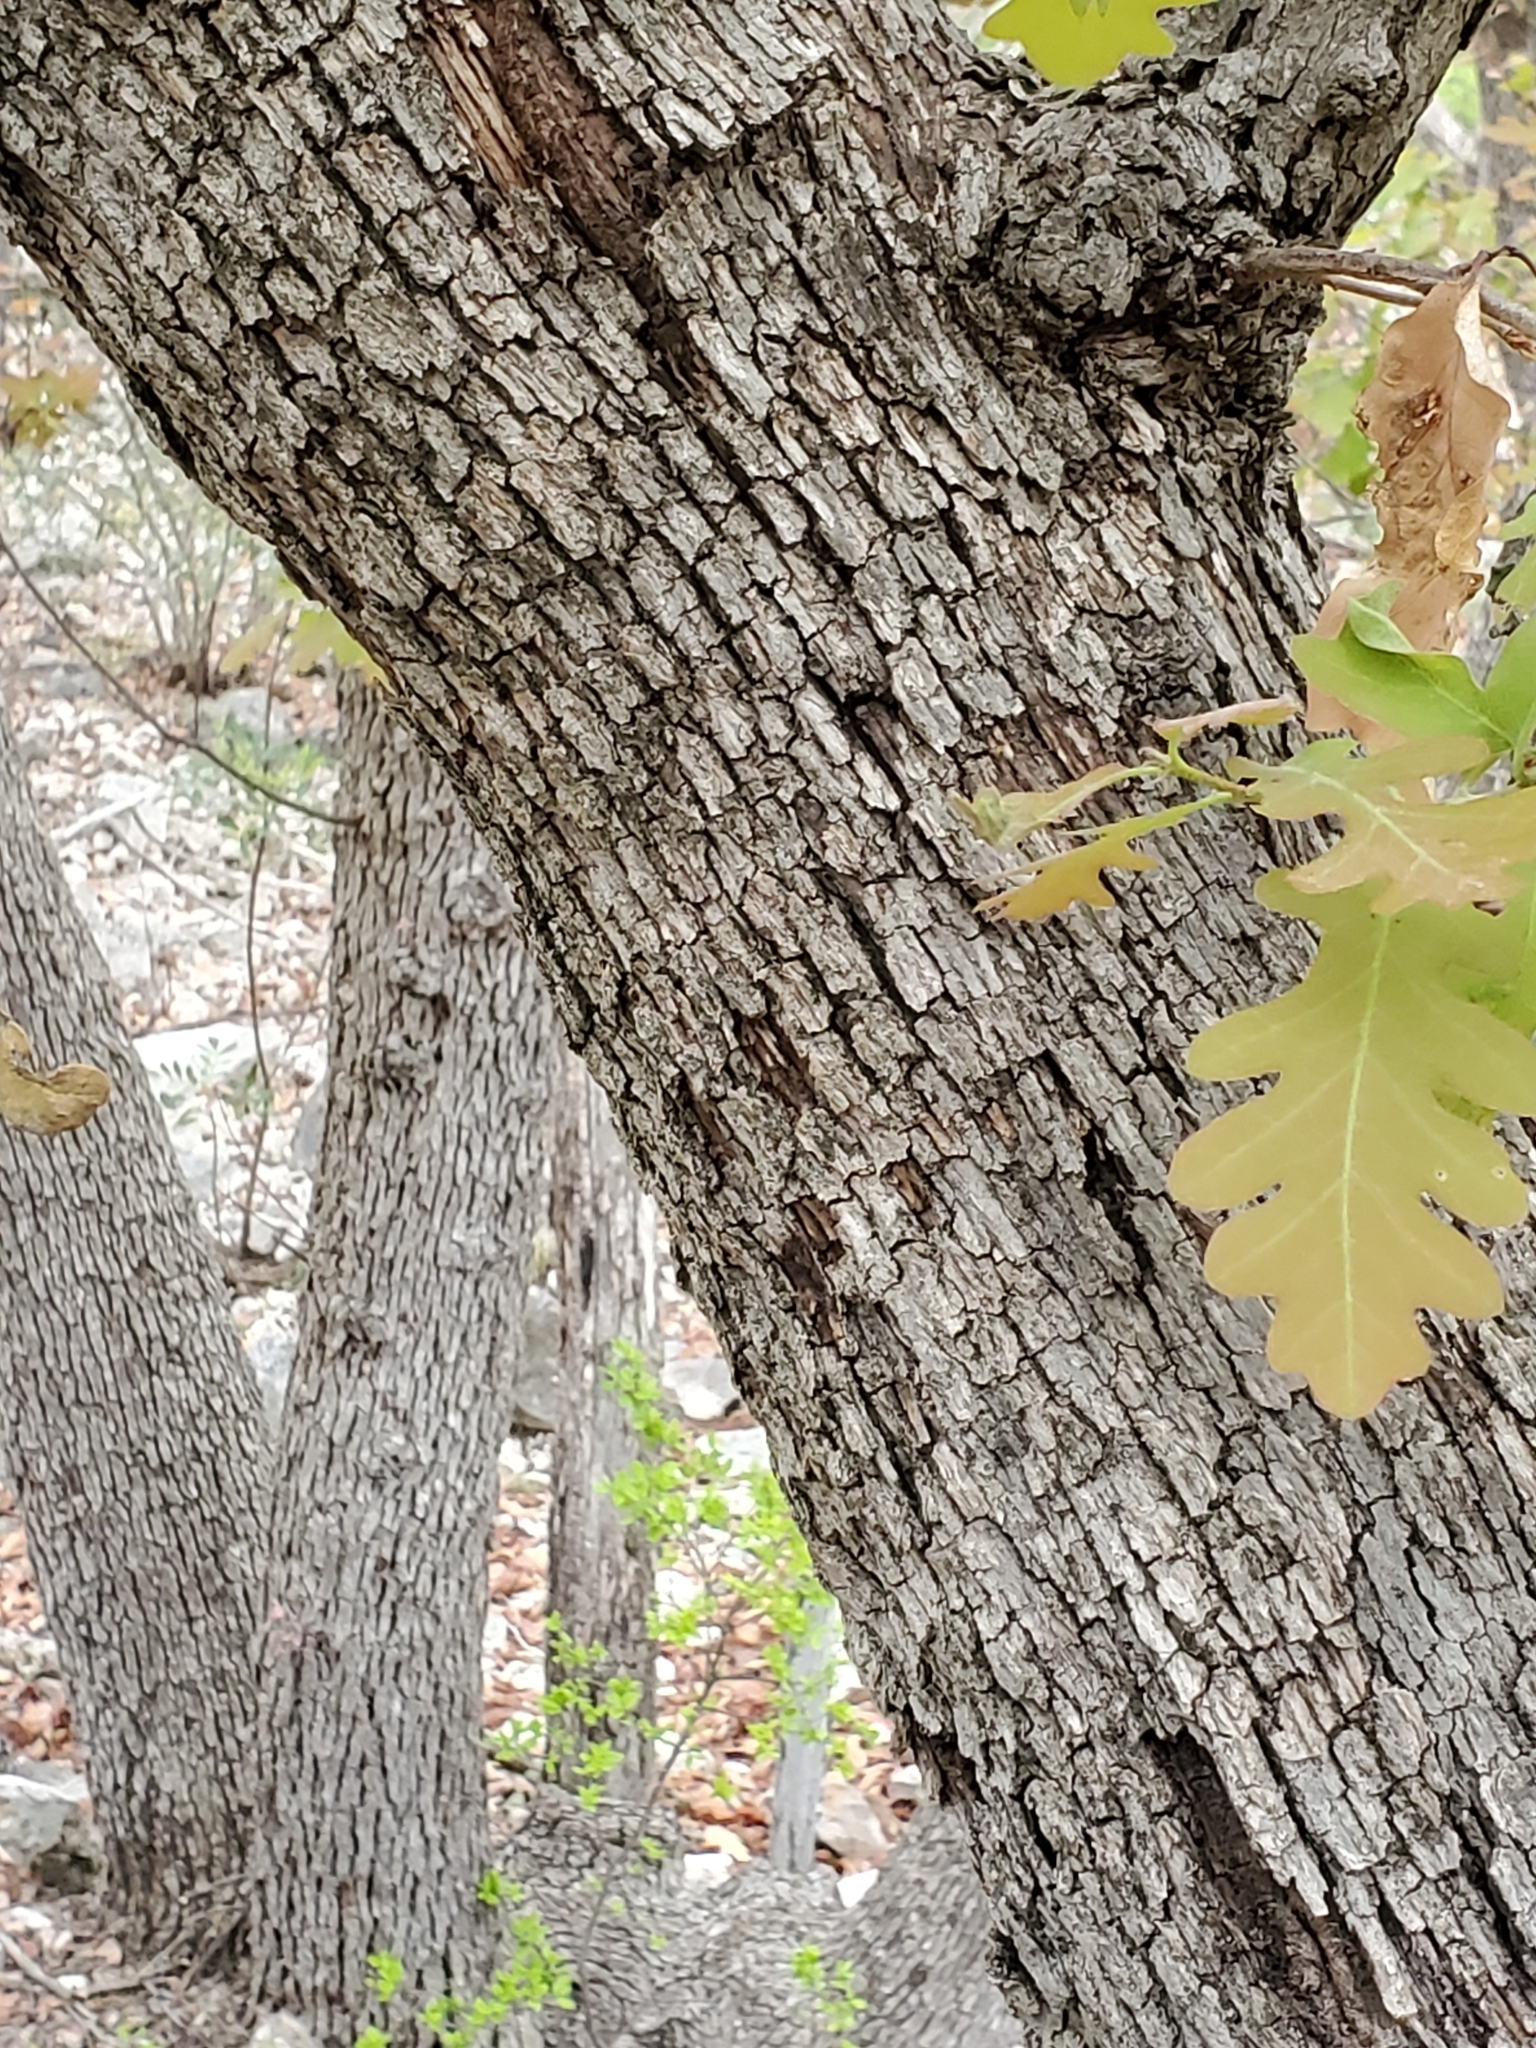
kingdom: Plantae
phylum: Tracheophyta
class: Magnoliopsida
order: Fagales
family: Fagaceae
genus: Quercus
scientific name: Quercus laceyi
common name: Lacey oak
